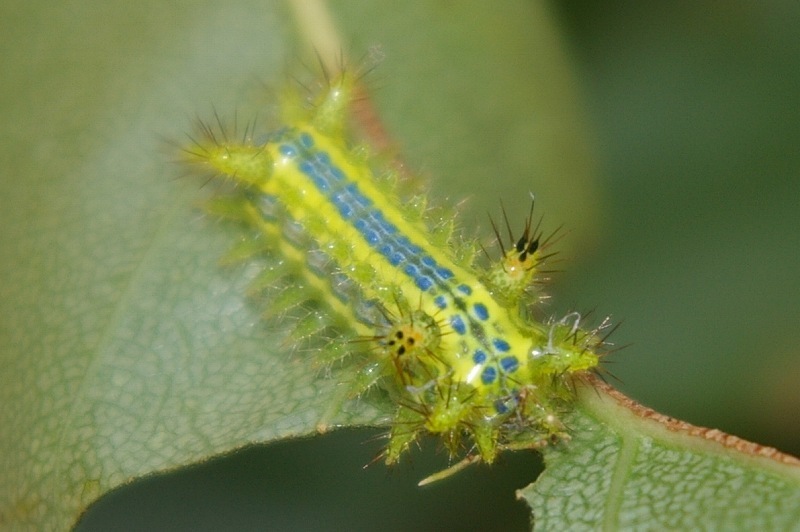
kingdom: Animalia
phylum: Arthropoda
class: Insecta
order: Lepidoptera
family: Limacodidae
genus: Parasa
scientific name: Parasa lepida
